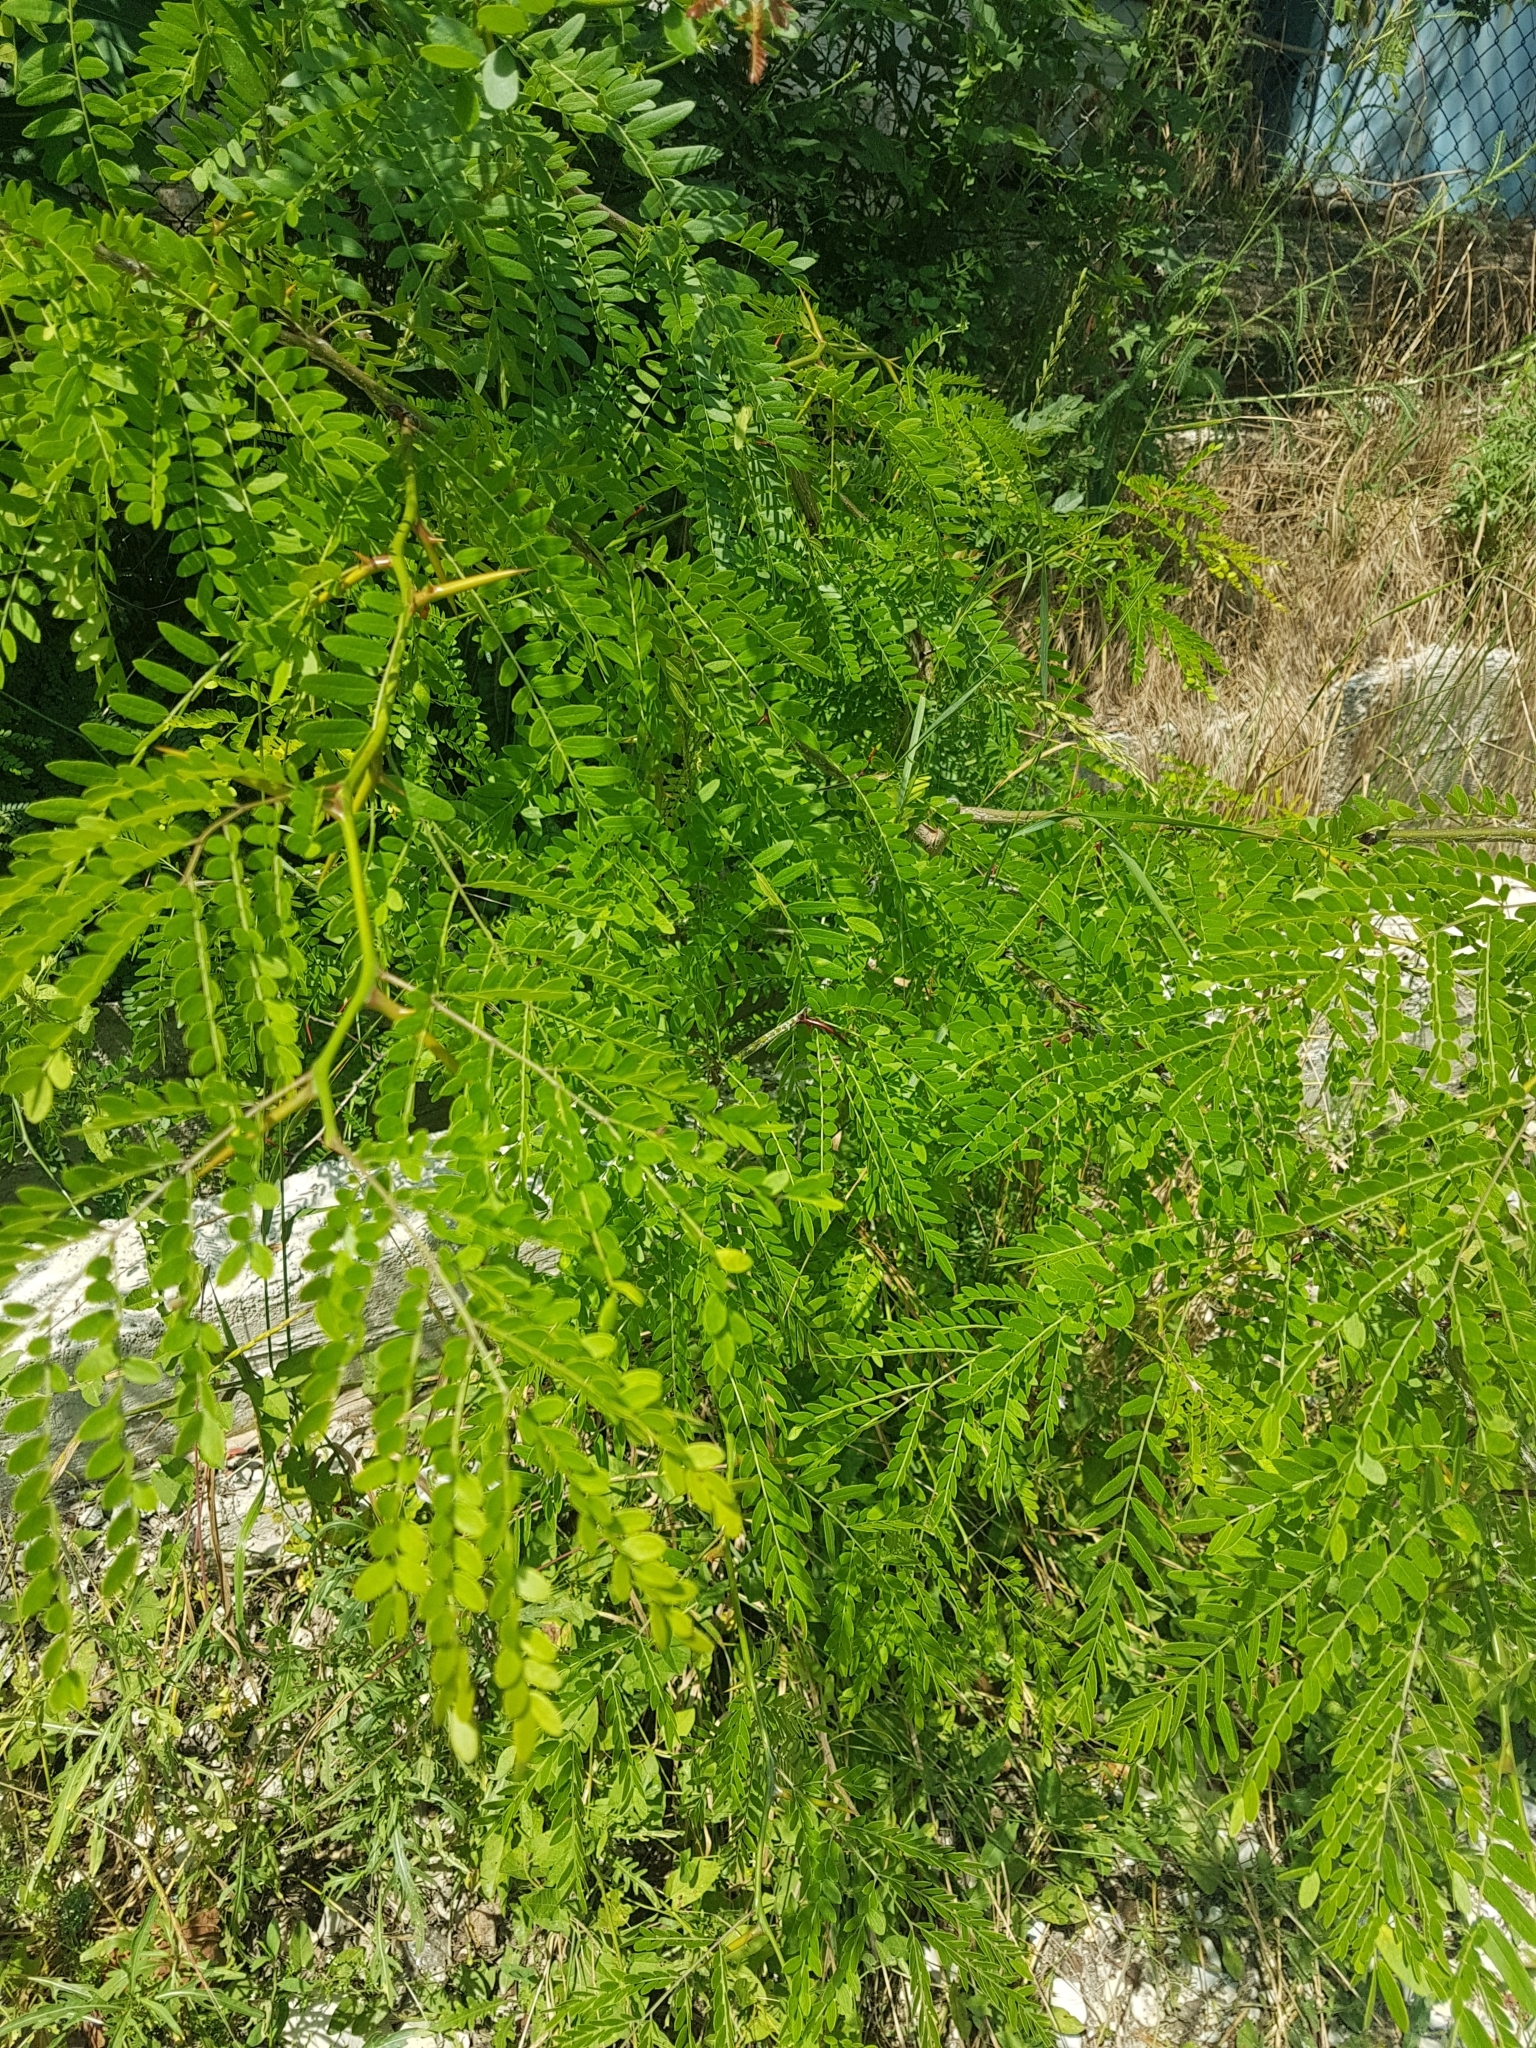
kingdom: Plantae
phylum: Tracheophyta
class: Magnoliopsida
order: Fabales
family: Fabaceae
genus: Gleditsia
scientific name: Gleditsia triacanthos
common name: Common honeylocust
